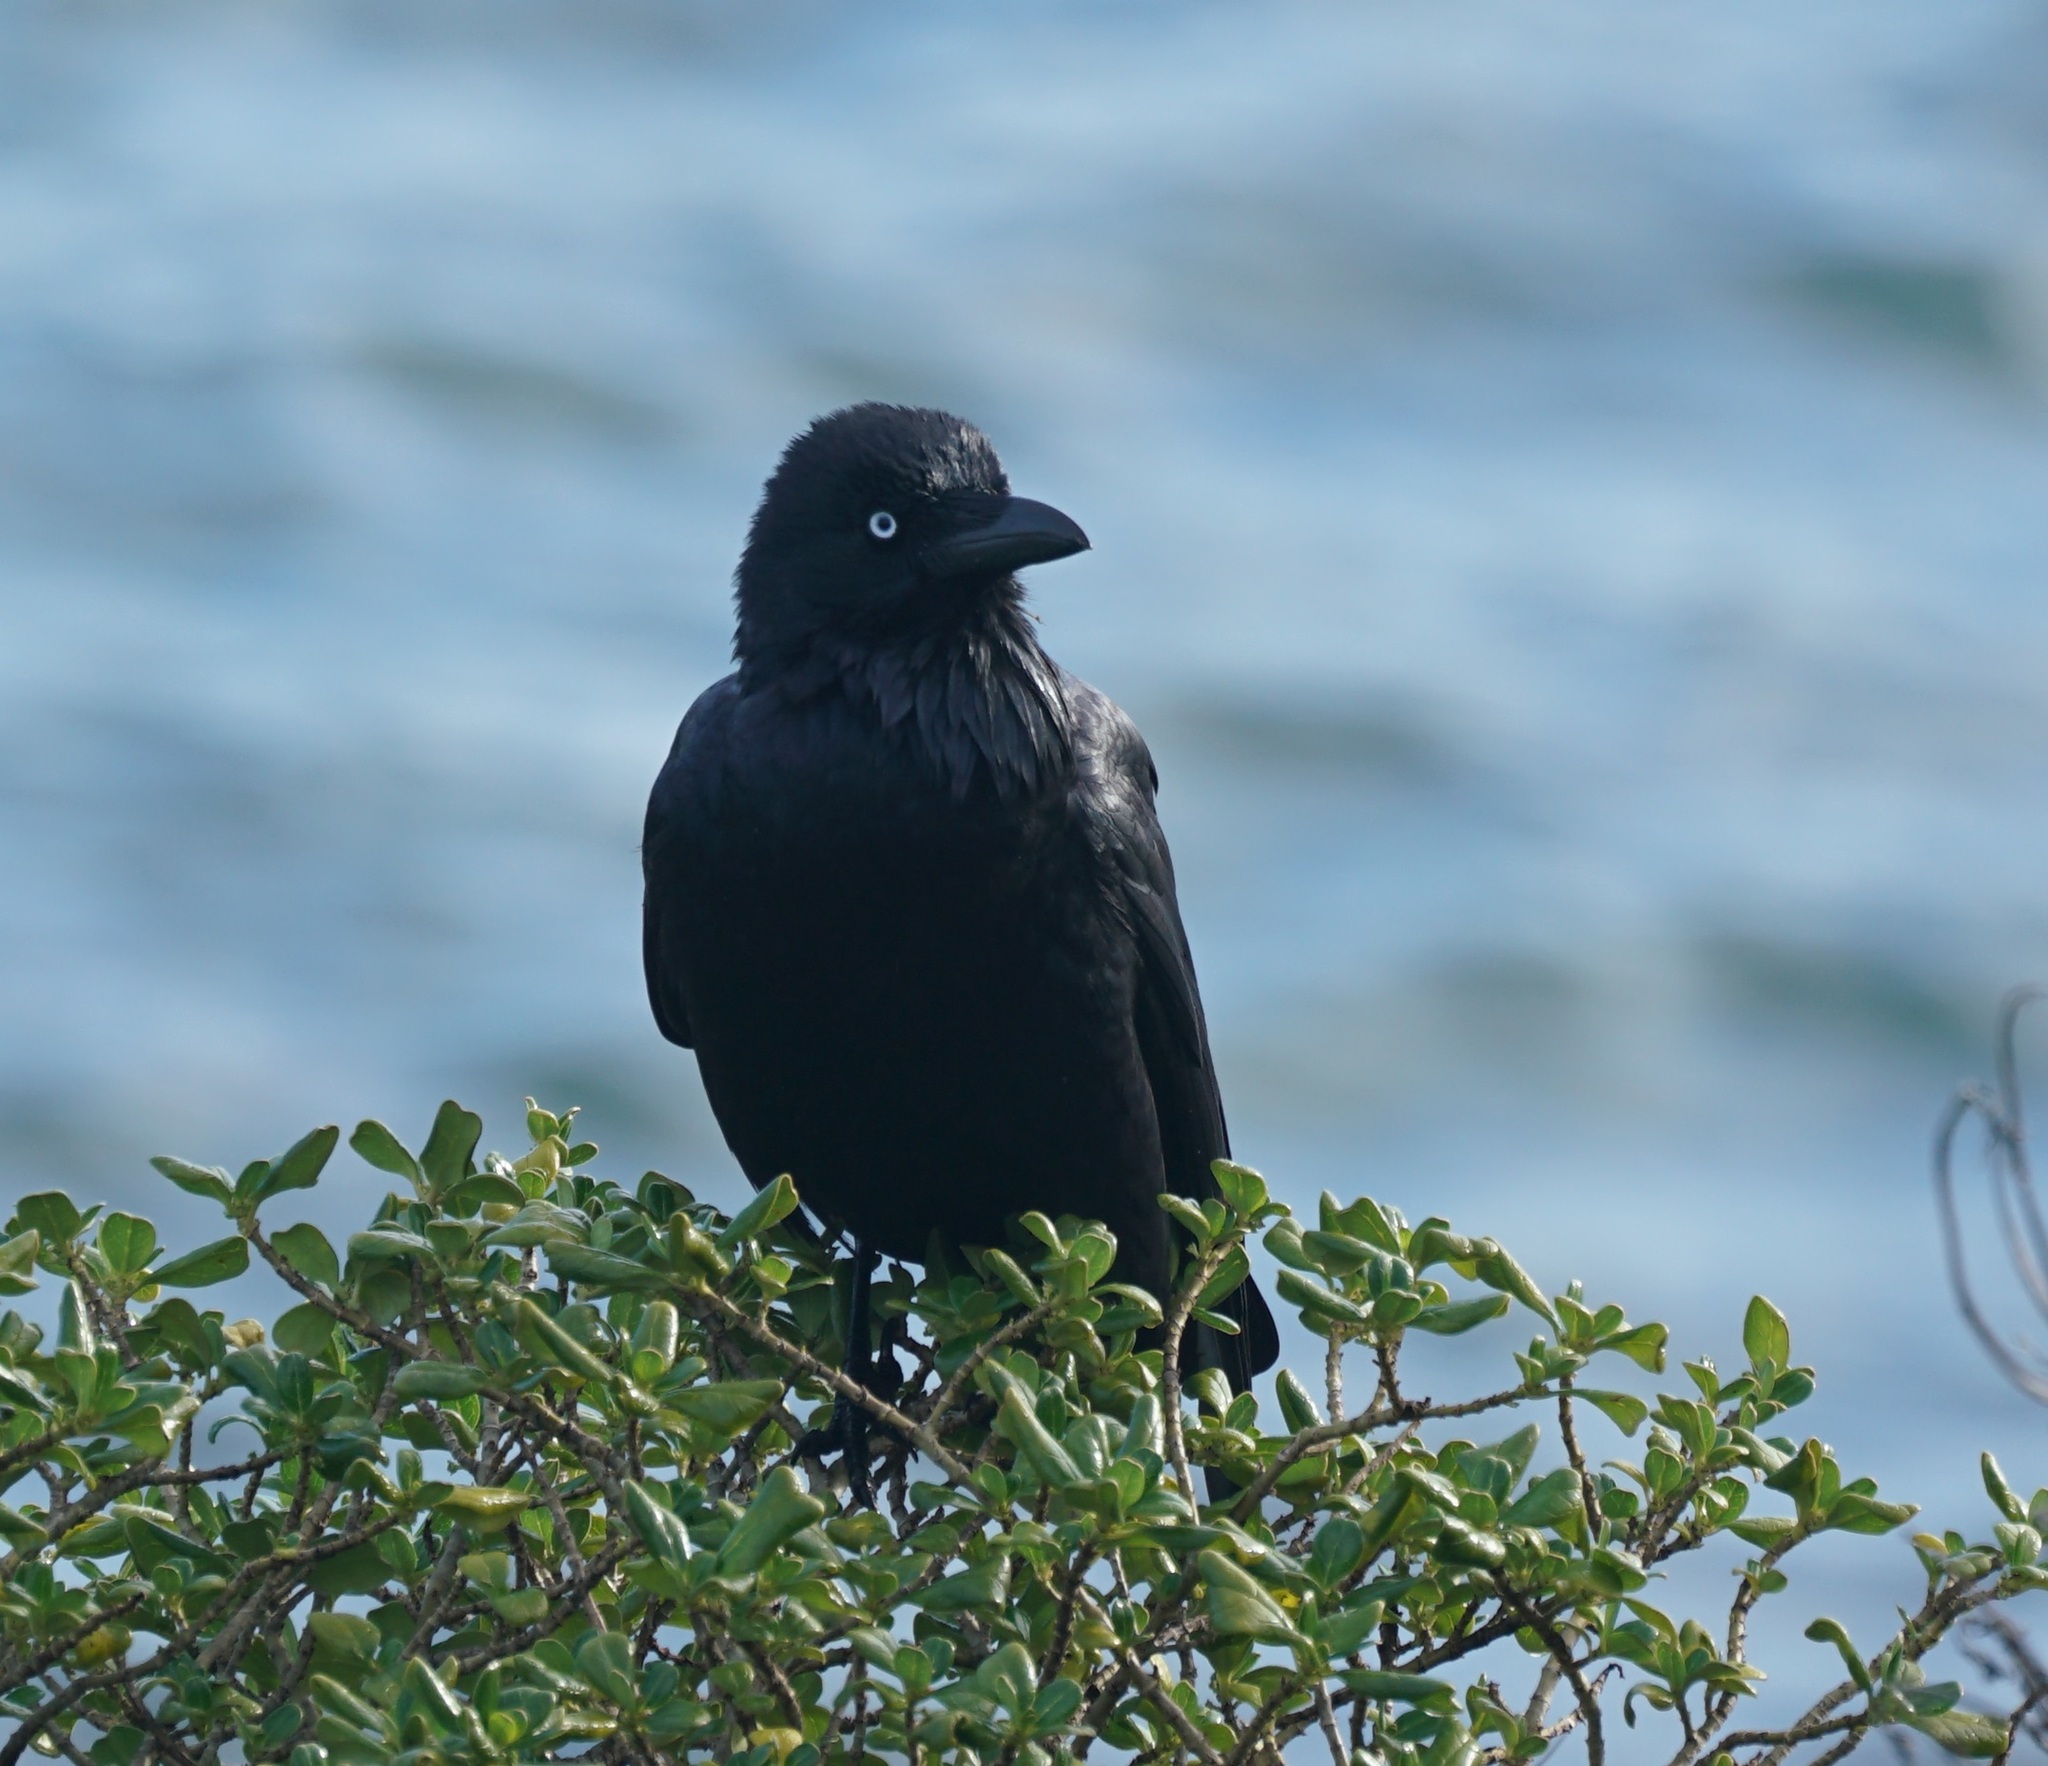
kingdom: Animalia
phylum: Chordata
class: Aves
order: Passeriformes
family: Corvidae
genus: Corvus
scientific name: Corvus coronoides
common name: Australian raven
